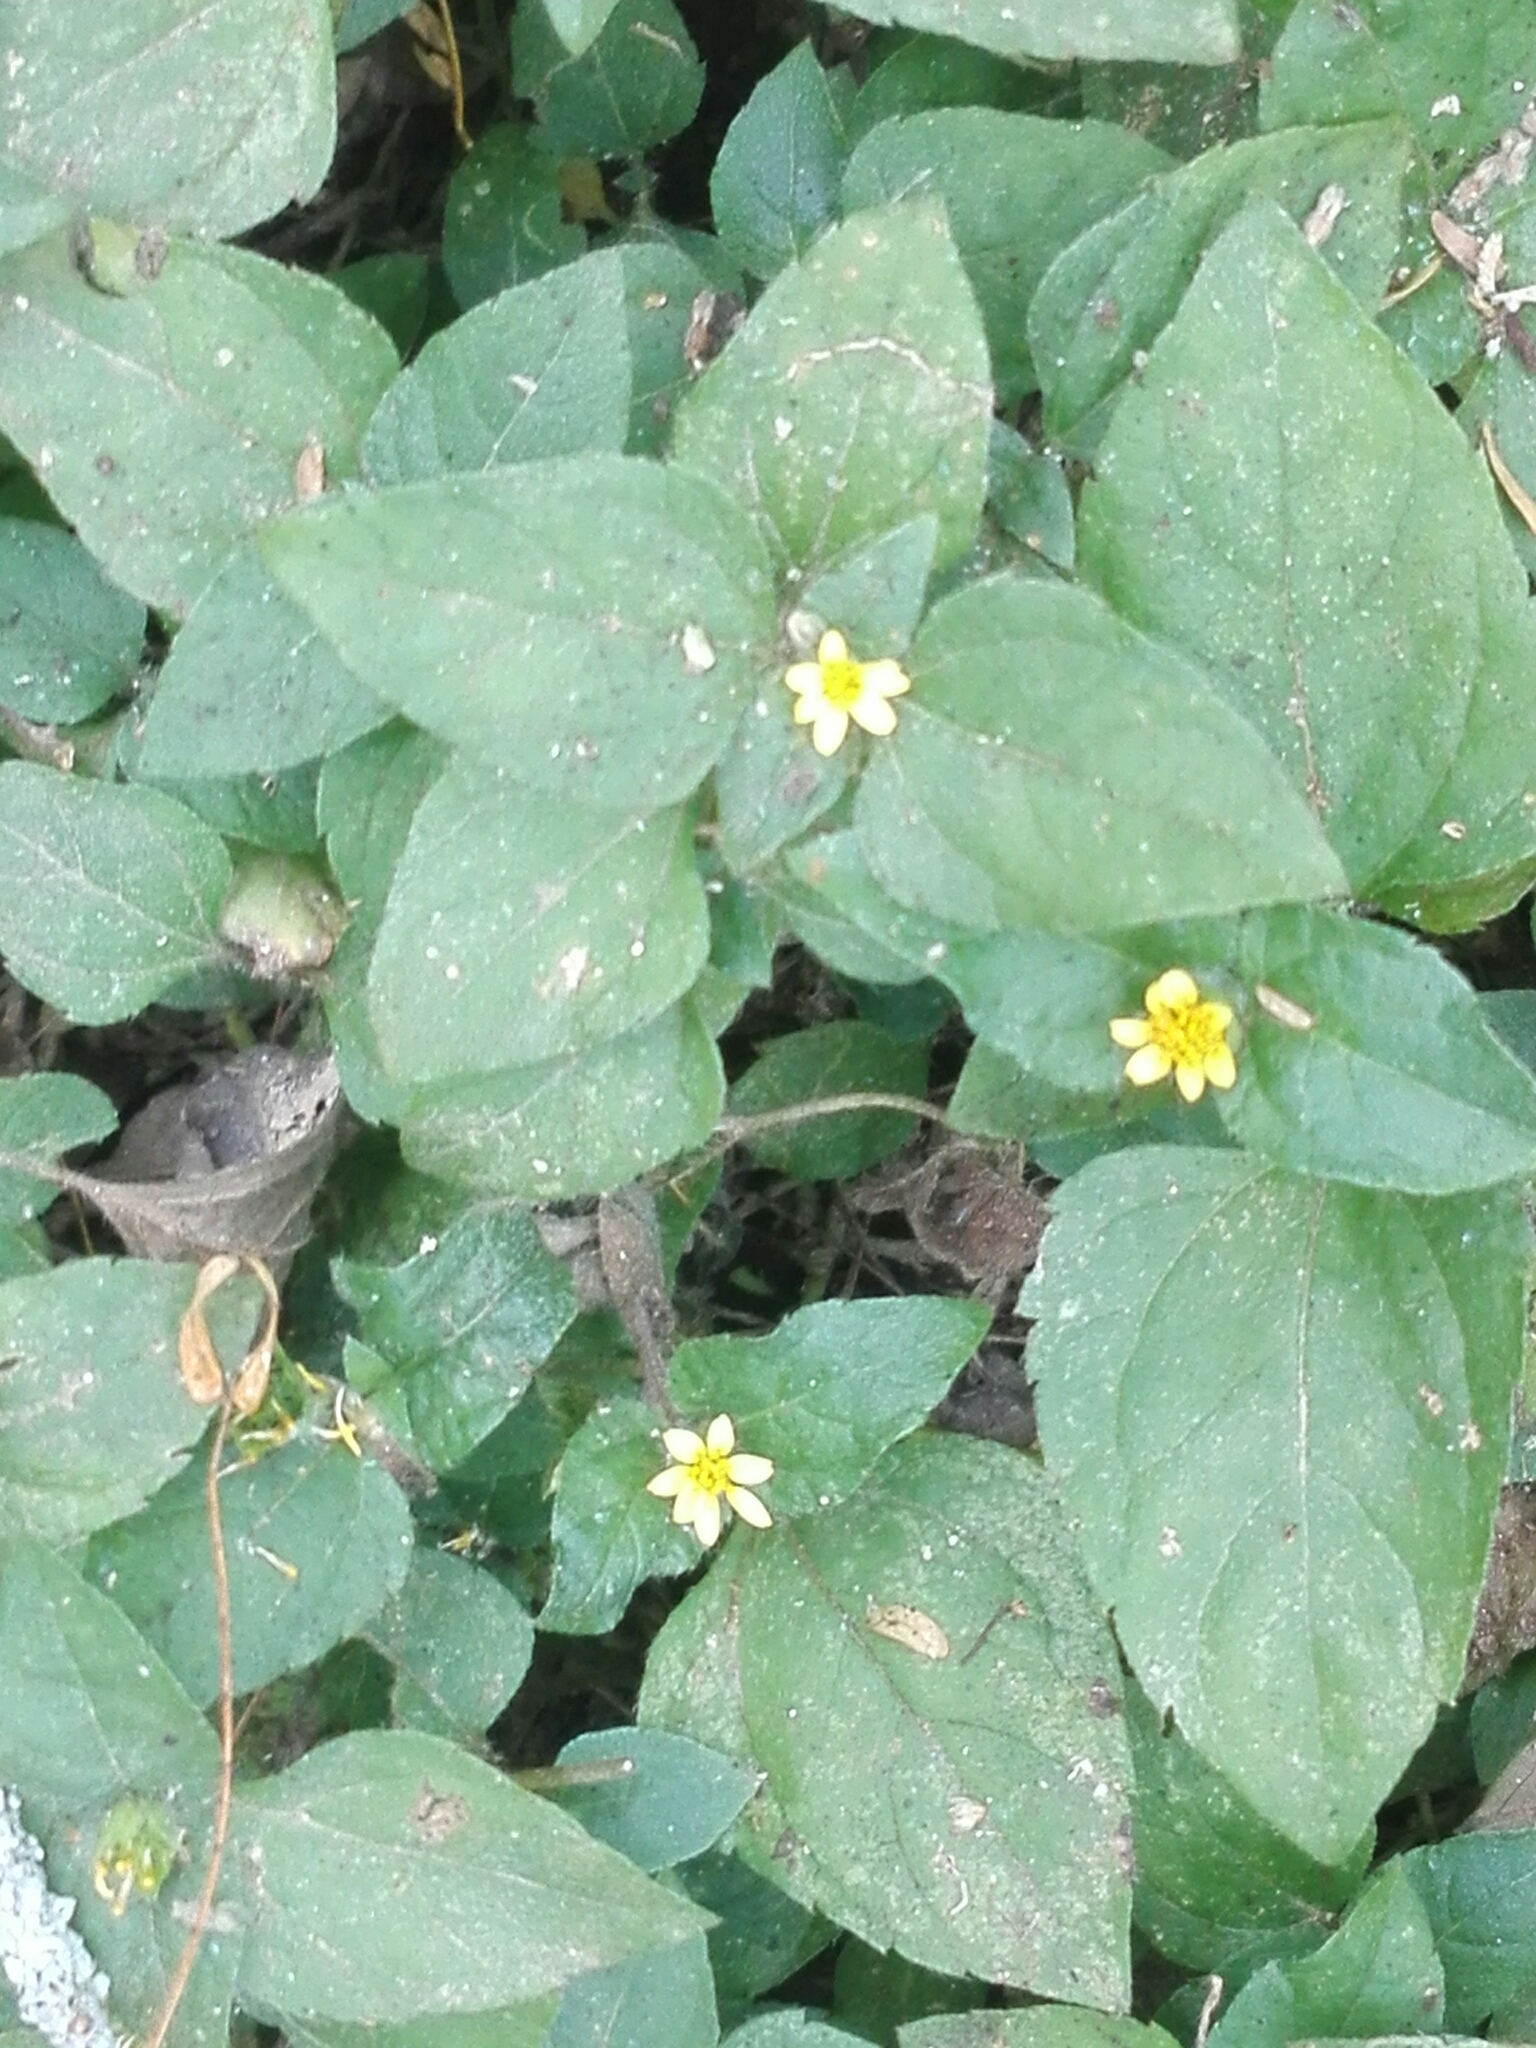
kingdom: Plantae
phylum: Tracheophyta
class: Magnoliopsida
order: Asterales
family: Asteraceae
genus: Calyptocarpus
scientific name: Calyptocarpus vialis
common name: Straggler daisy
